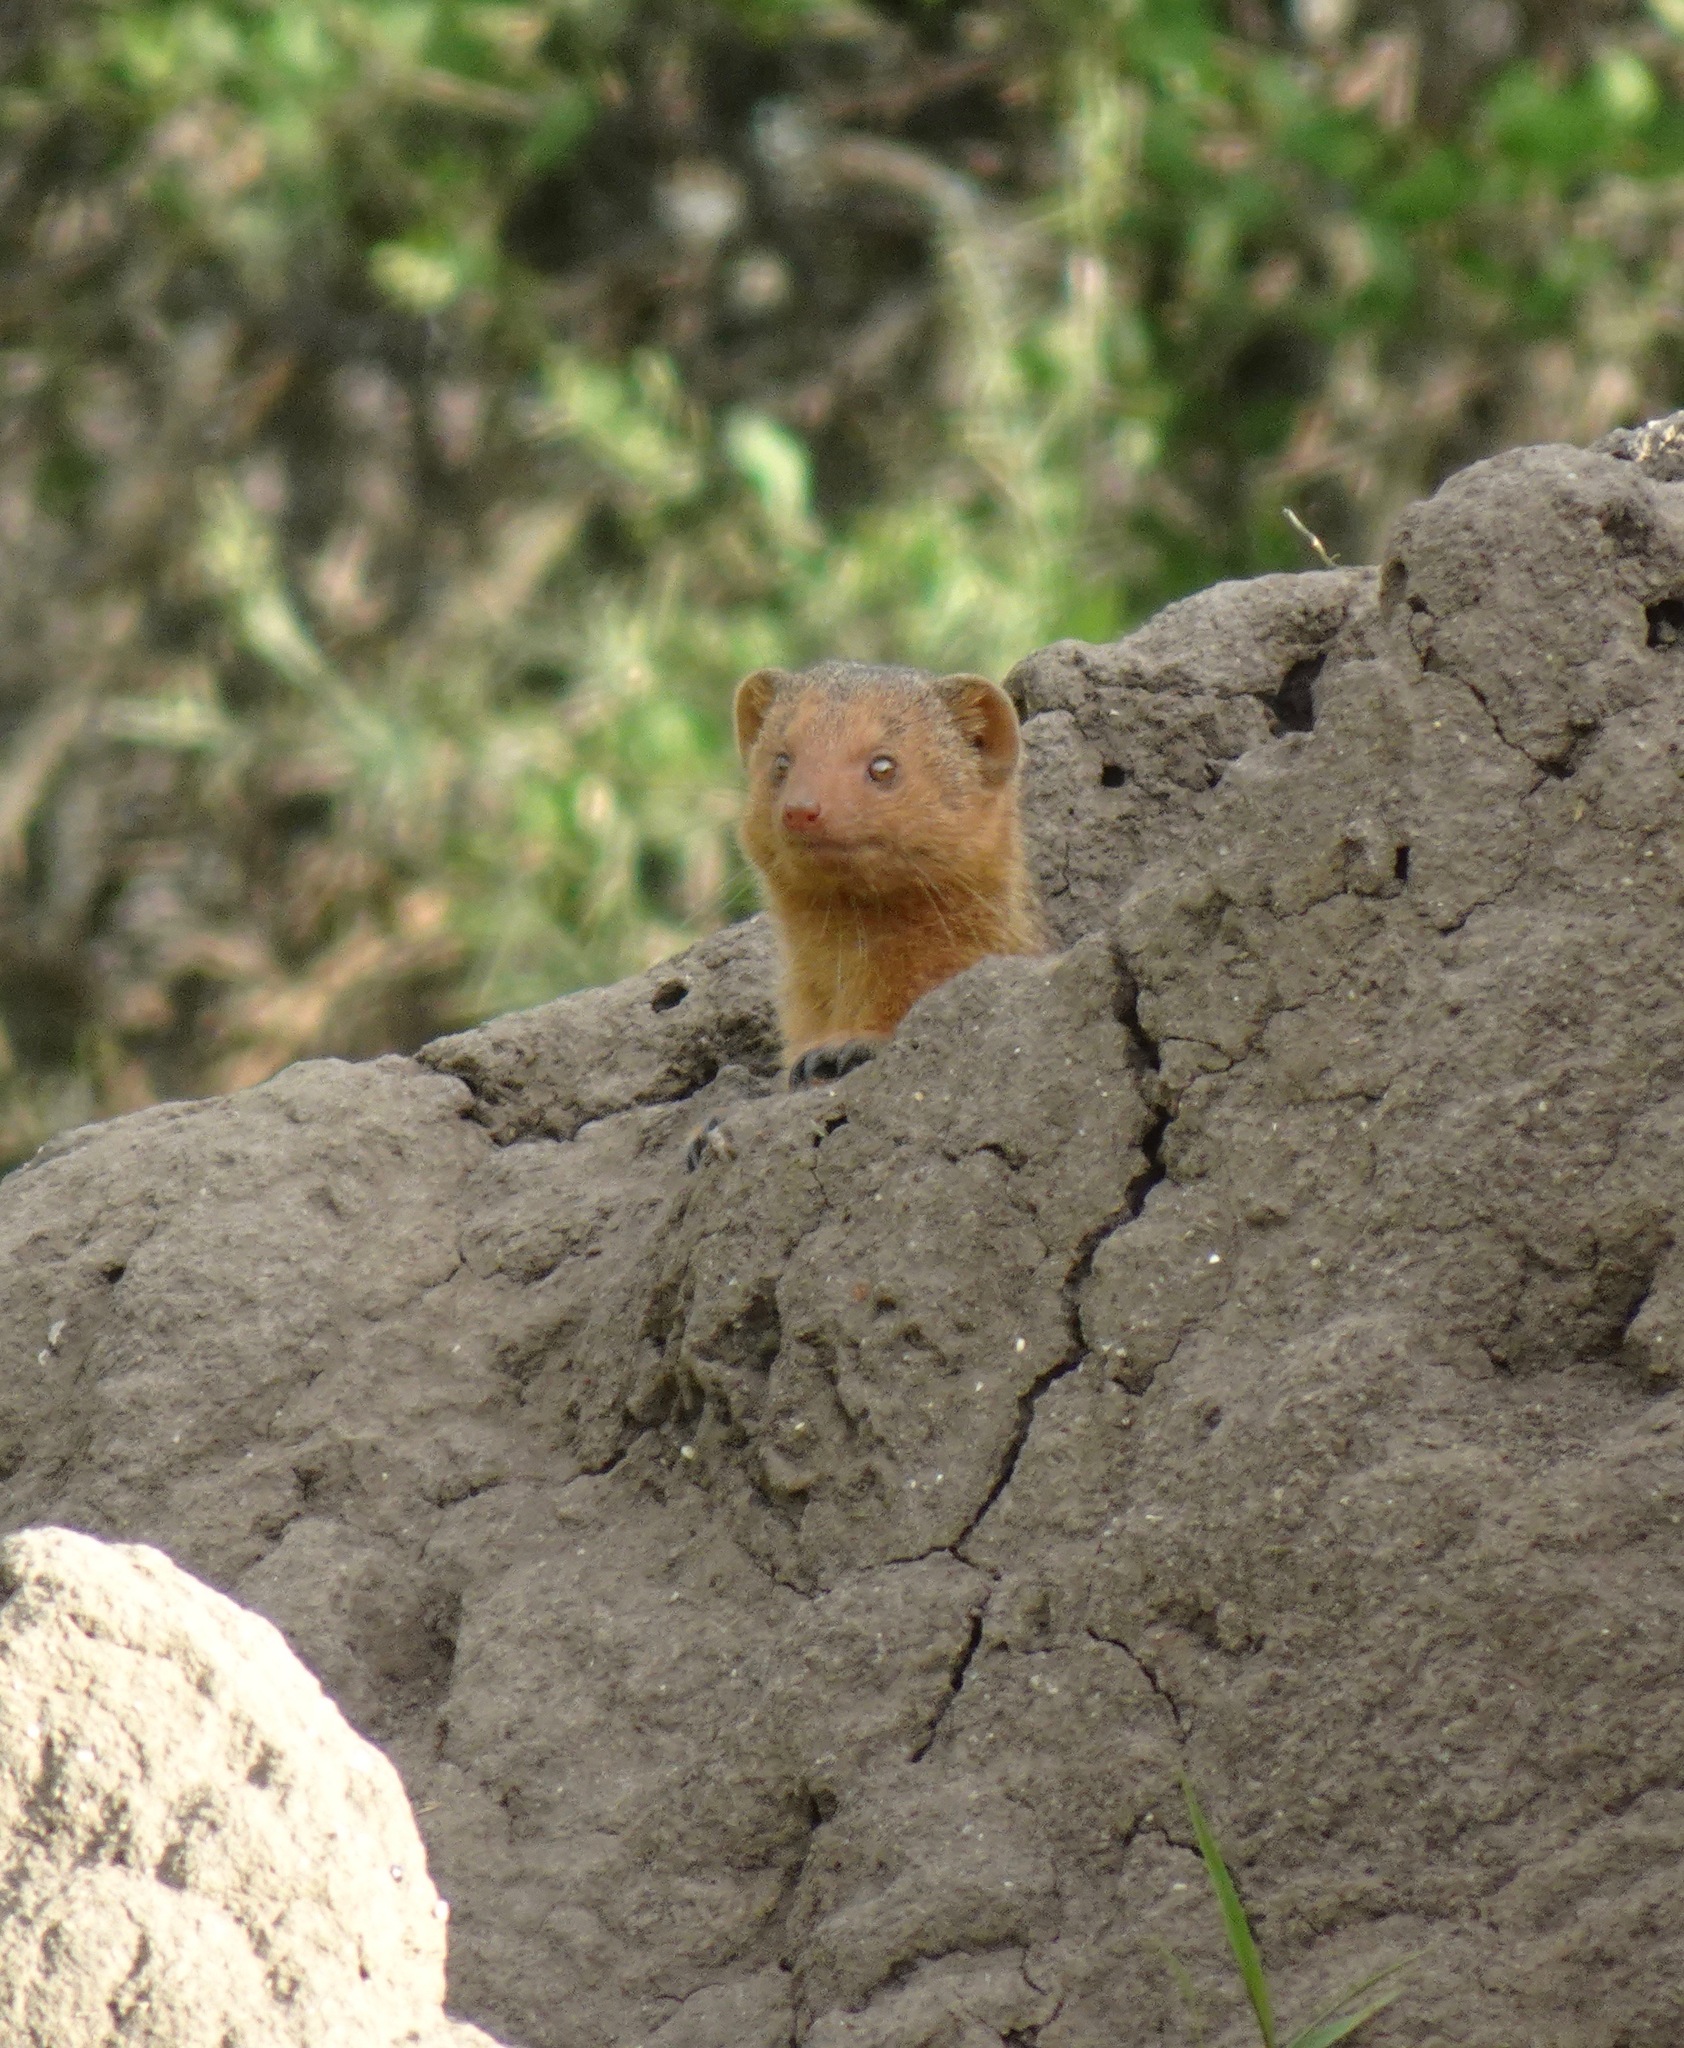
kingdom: Animalia
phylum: Chordata
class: Mammalia
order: Carnivora
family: Herpestidae
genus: Helogale
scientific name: Helogale parvula
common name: Common dwarf mongoose
